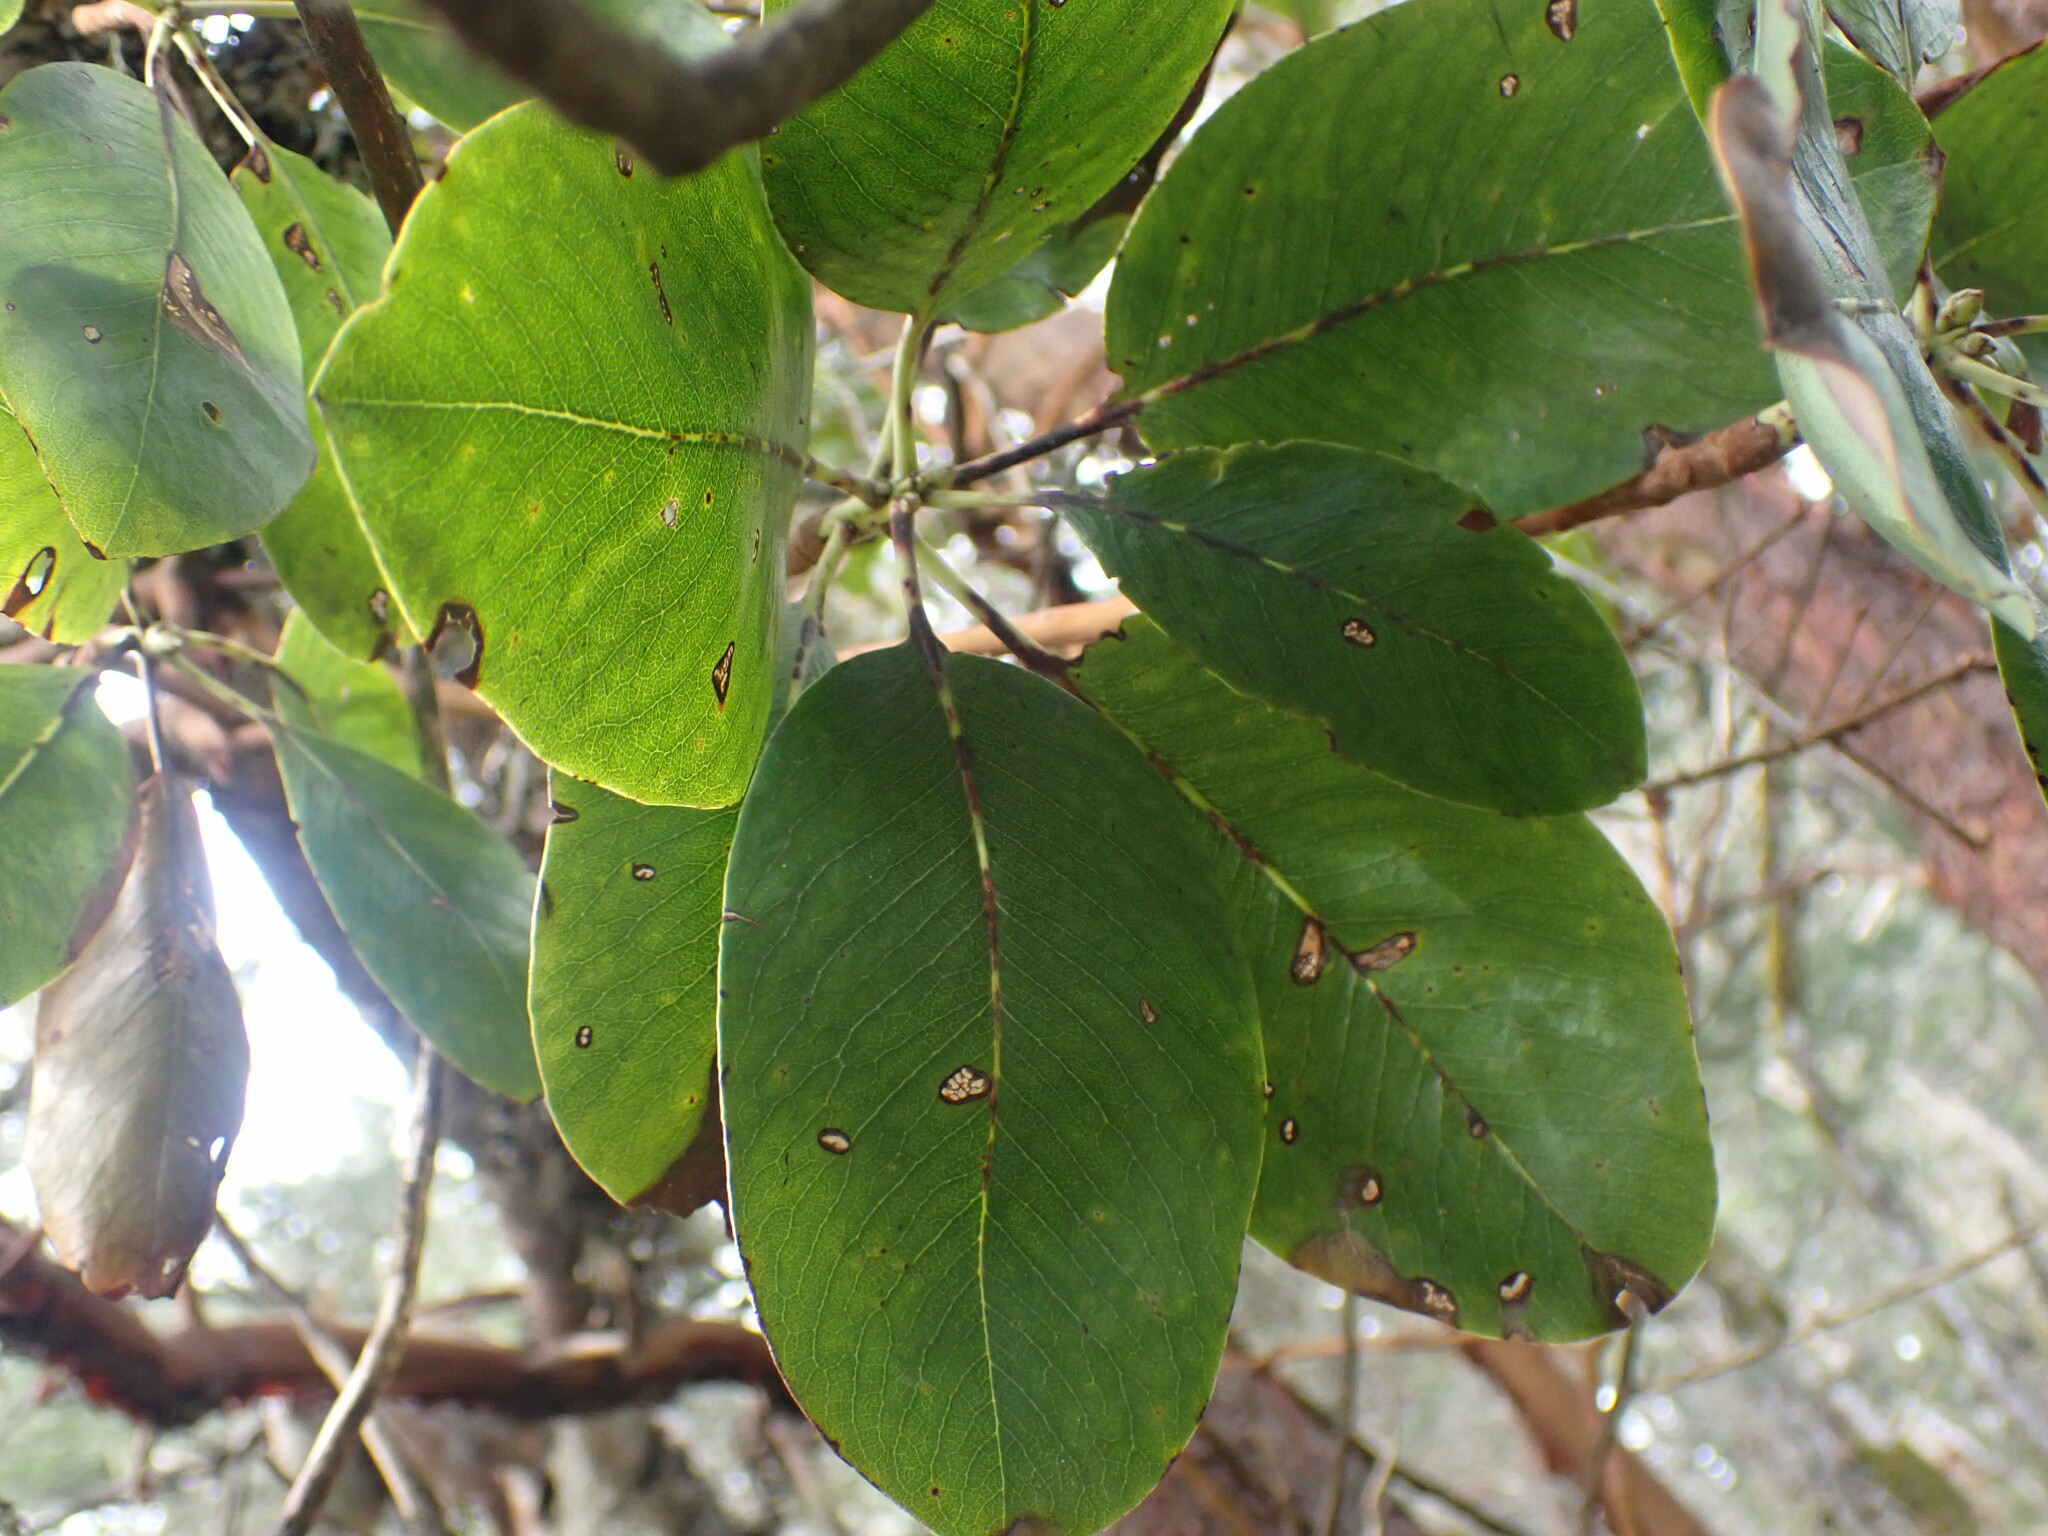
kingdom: Plantae
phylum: Tracheophyta
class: Magnoliopsida
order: Ericales
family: Ericaceae
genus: Arbutus
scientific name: Arbutus menziesii
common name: Pacific madrone
